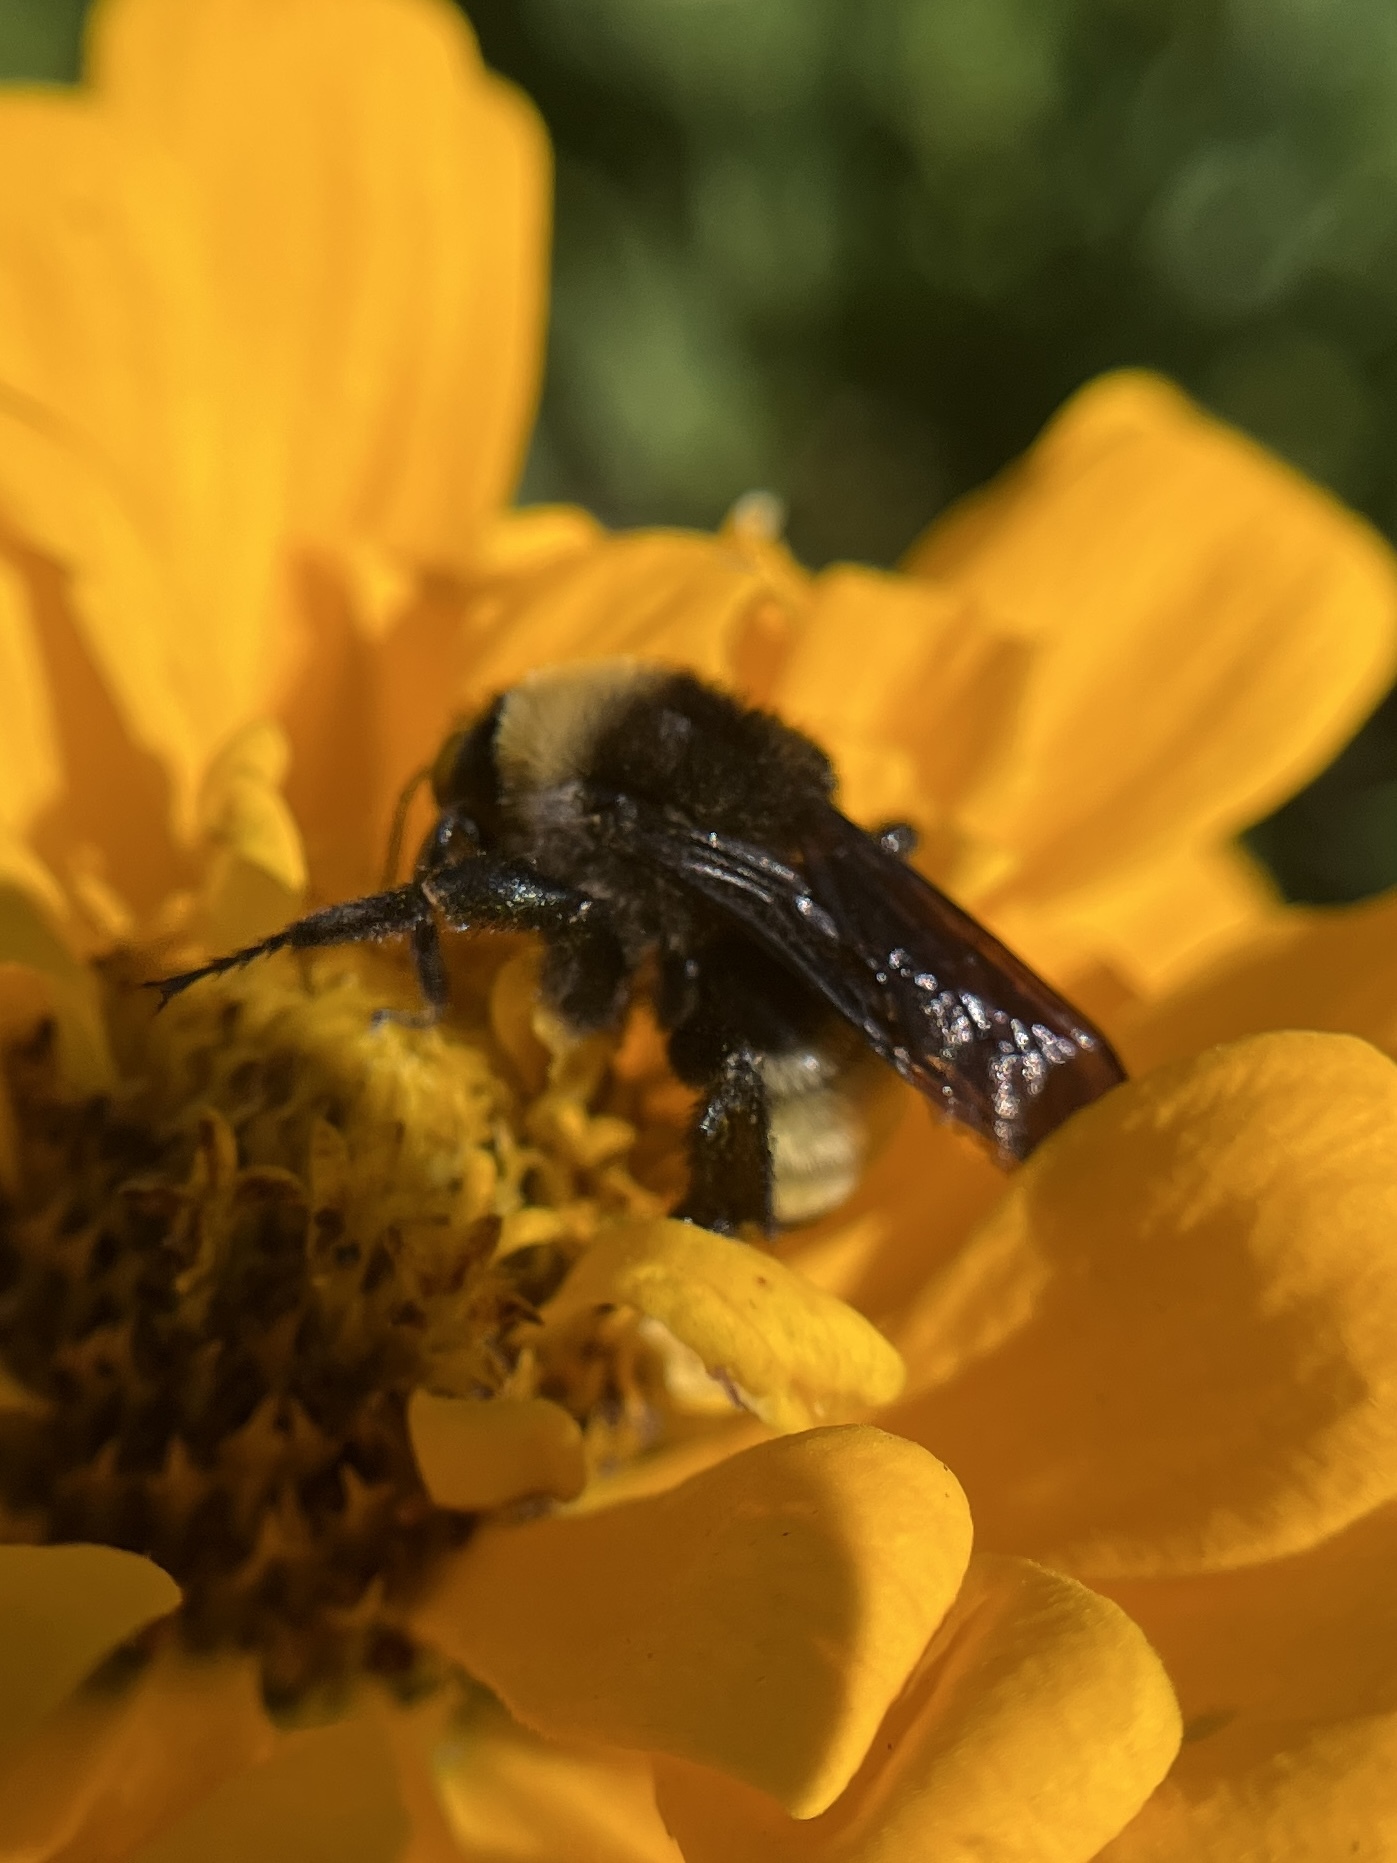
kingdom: Animalia
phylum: Arthropoda
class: Insecta
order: Hymenoptera
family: Apidae
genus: Bombus
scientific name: Bombus pensylvanicus
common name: Bumble bee
